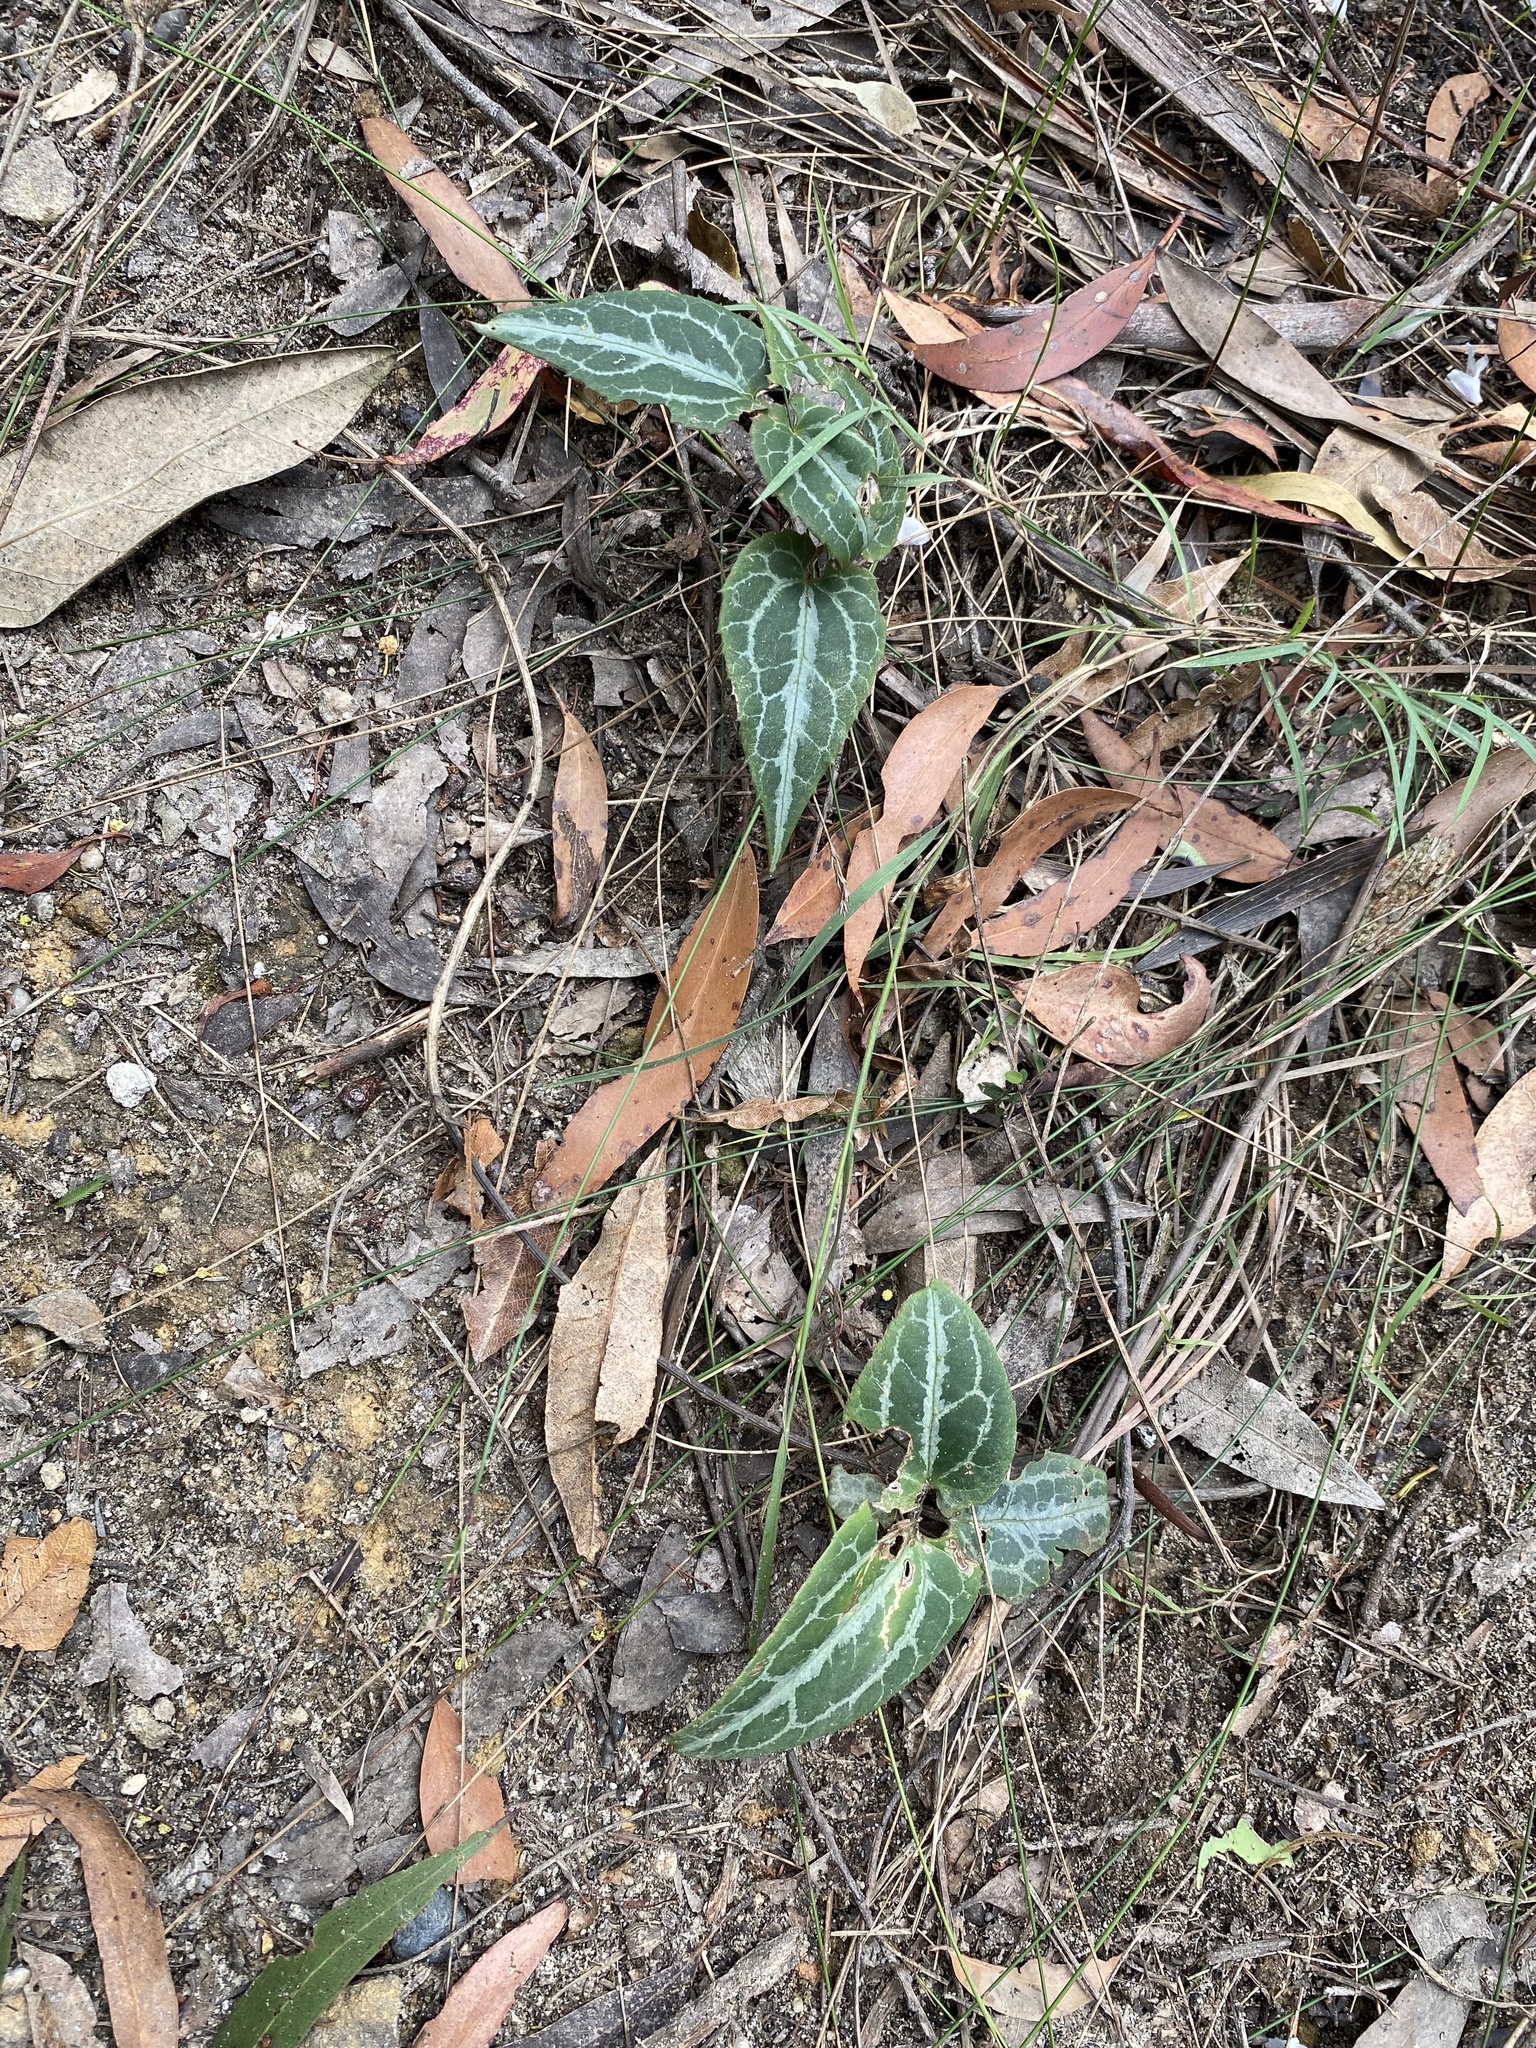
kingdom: Plantae
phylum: Tracheophyta
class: Magnoliopsida
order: Ranunculales
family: Ranunculaceae
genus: Clematis
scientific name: Clematis aristata
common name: Mountain clematis
